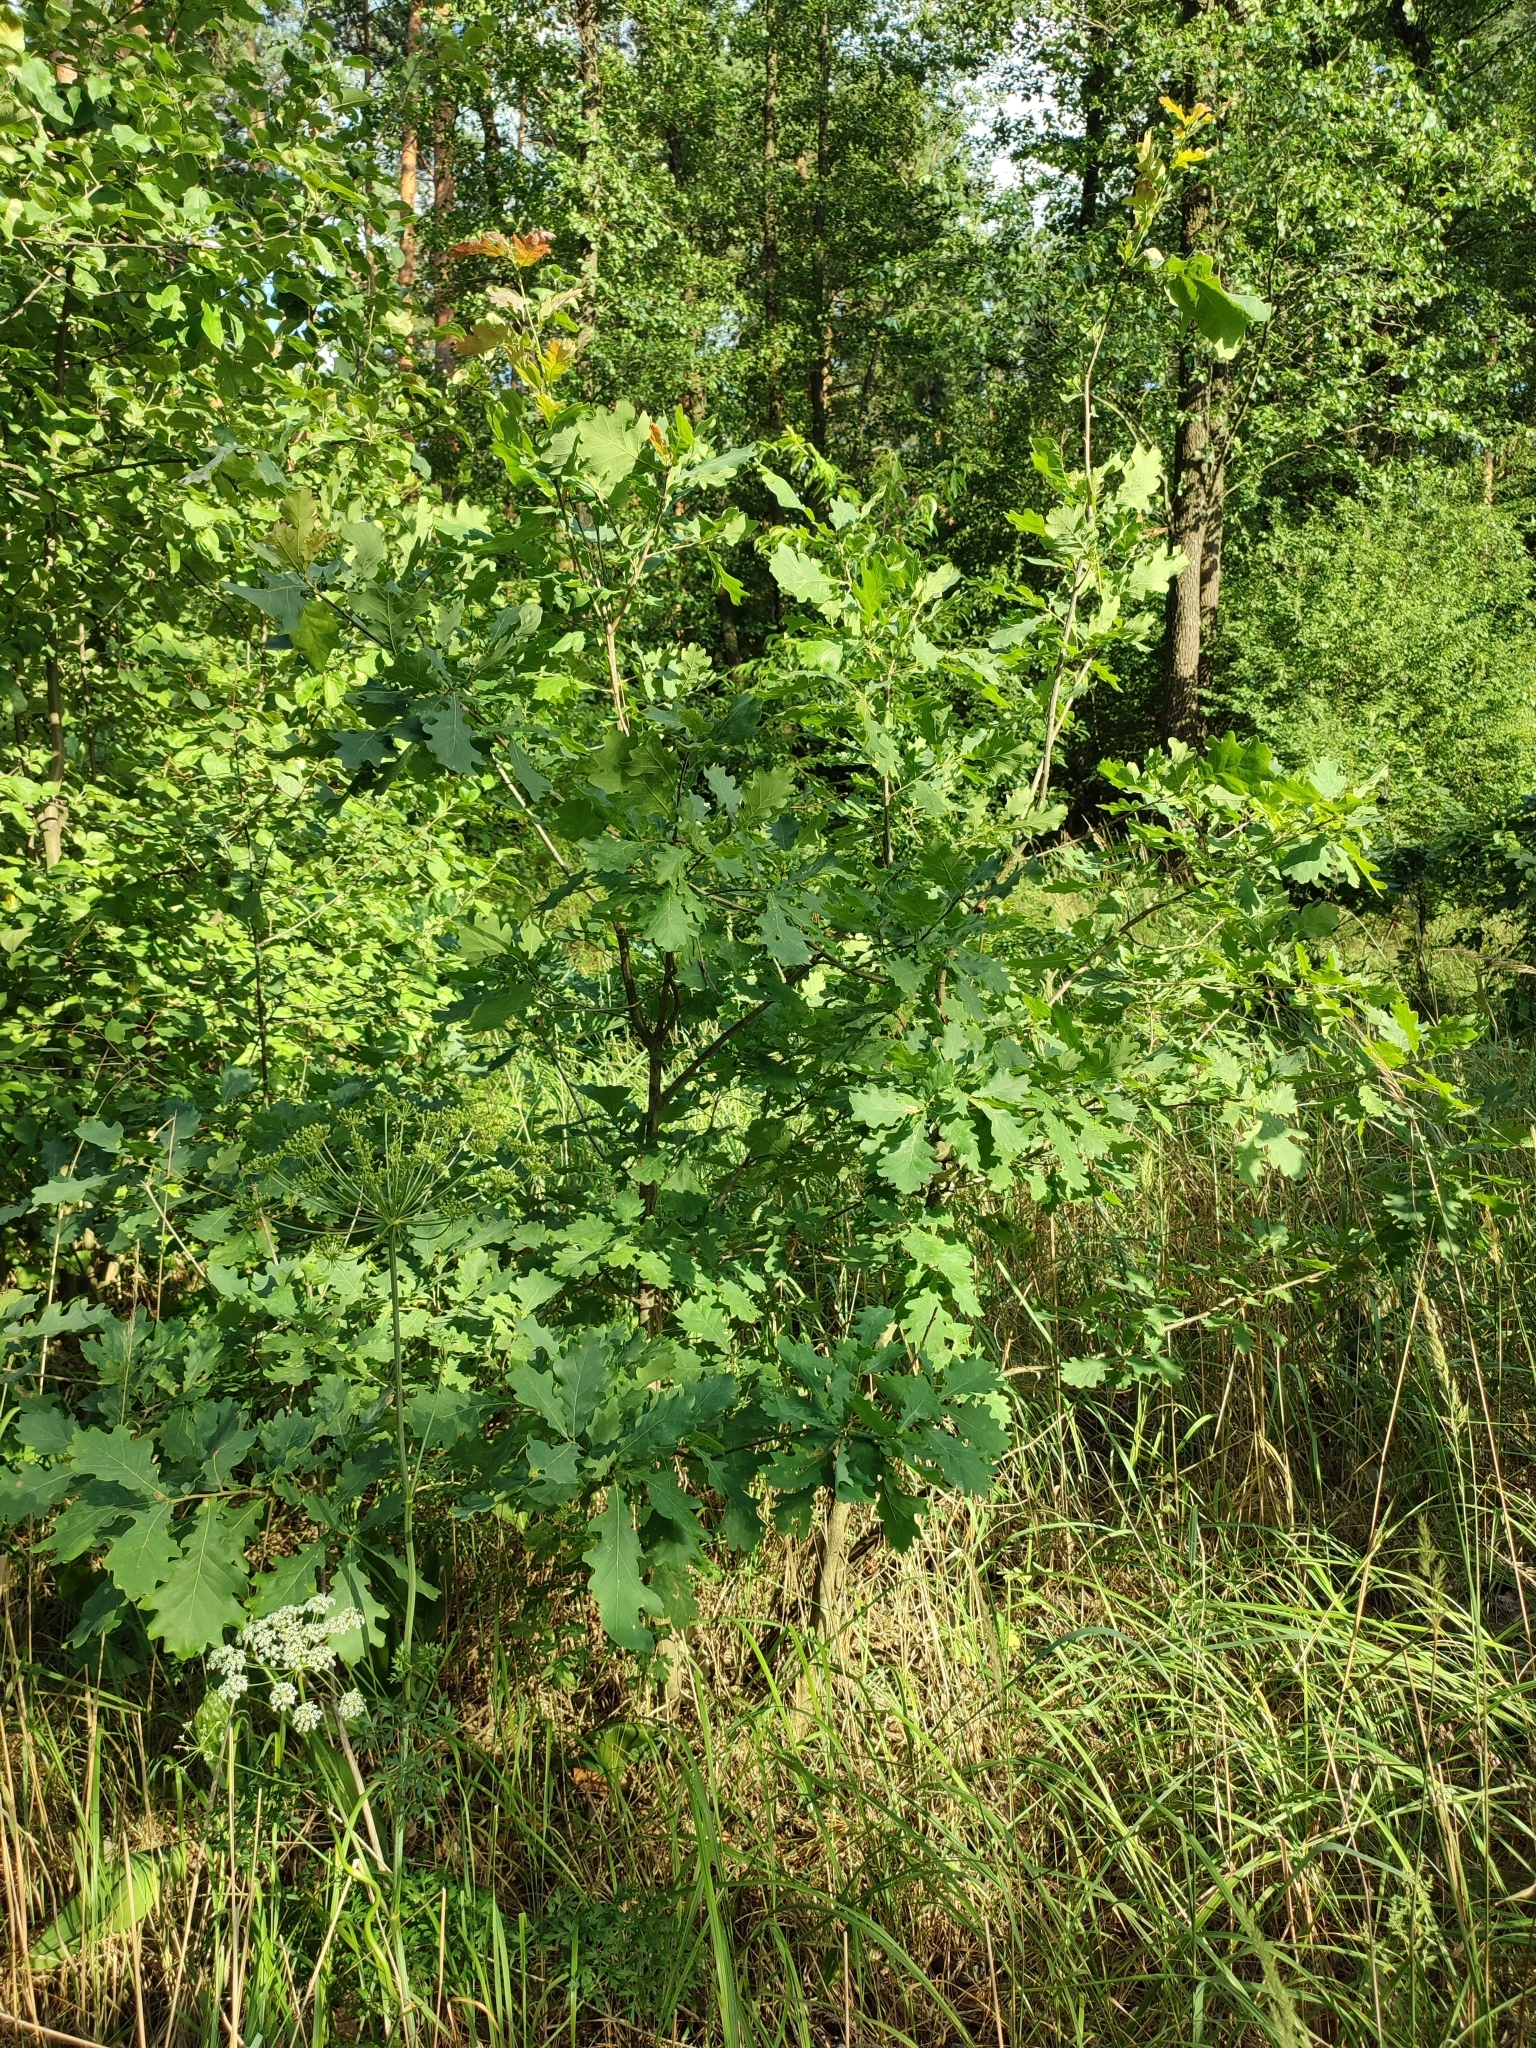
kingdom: Plantae
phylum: Tracheophyta
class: Magnoliopsida
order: Fagales
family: Fagaceae
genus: Quercus
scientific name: Quercus robur
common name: Pedunculate oak
